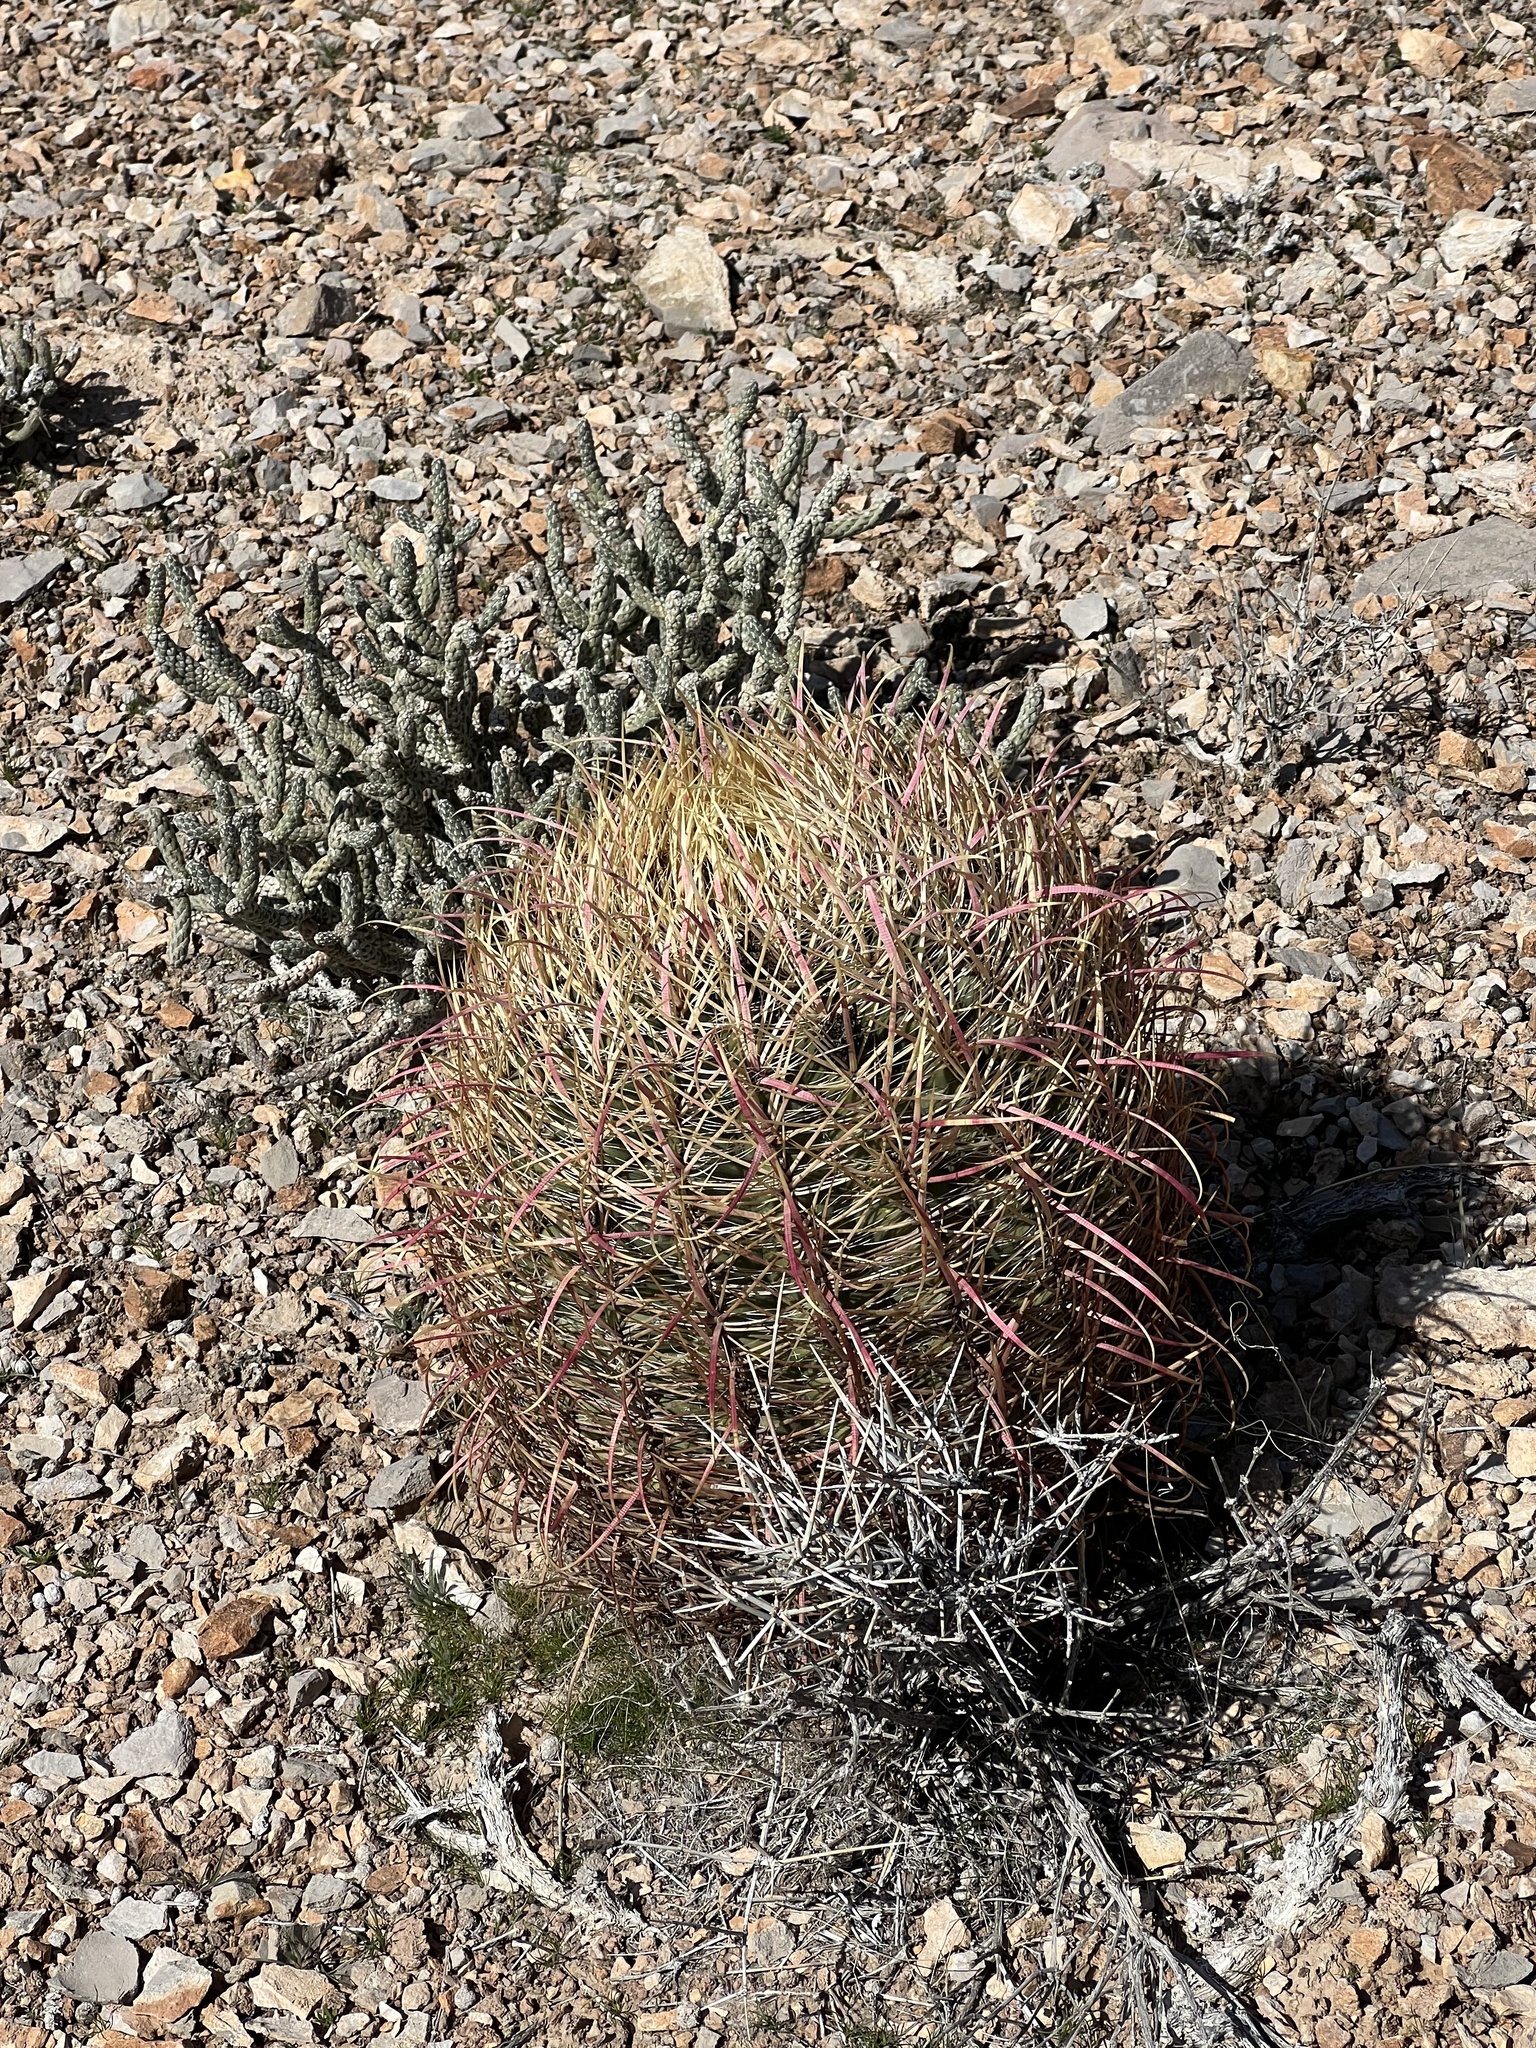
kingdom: Plantae
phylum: Tracheophyta
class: Magnoliopsida
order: Caryophyllales
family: Cactaceae
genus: Ferocactus
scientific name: Ferocactus cylindraceus
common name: California barrel cactus
